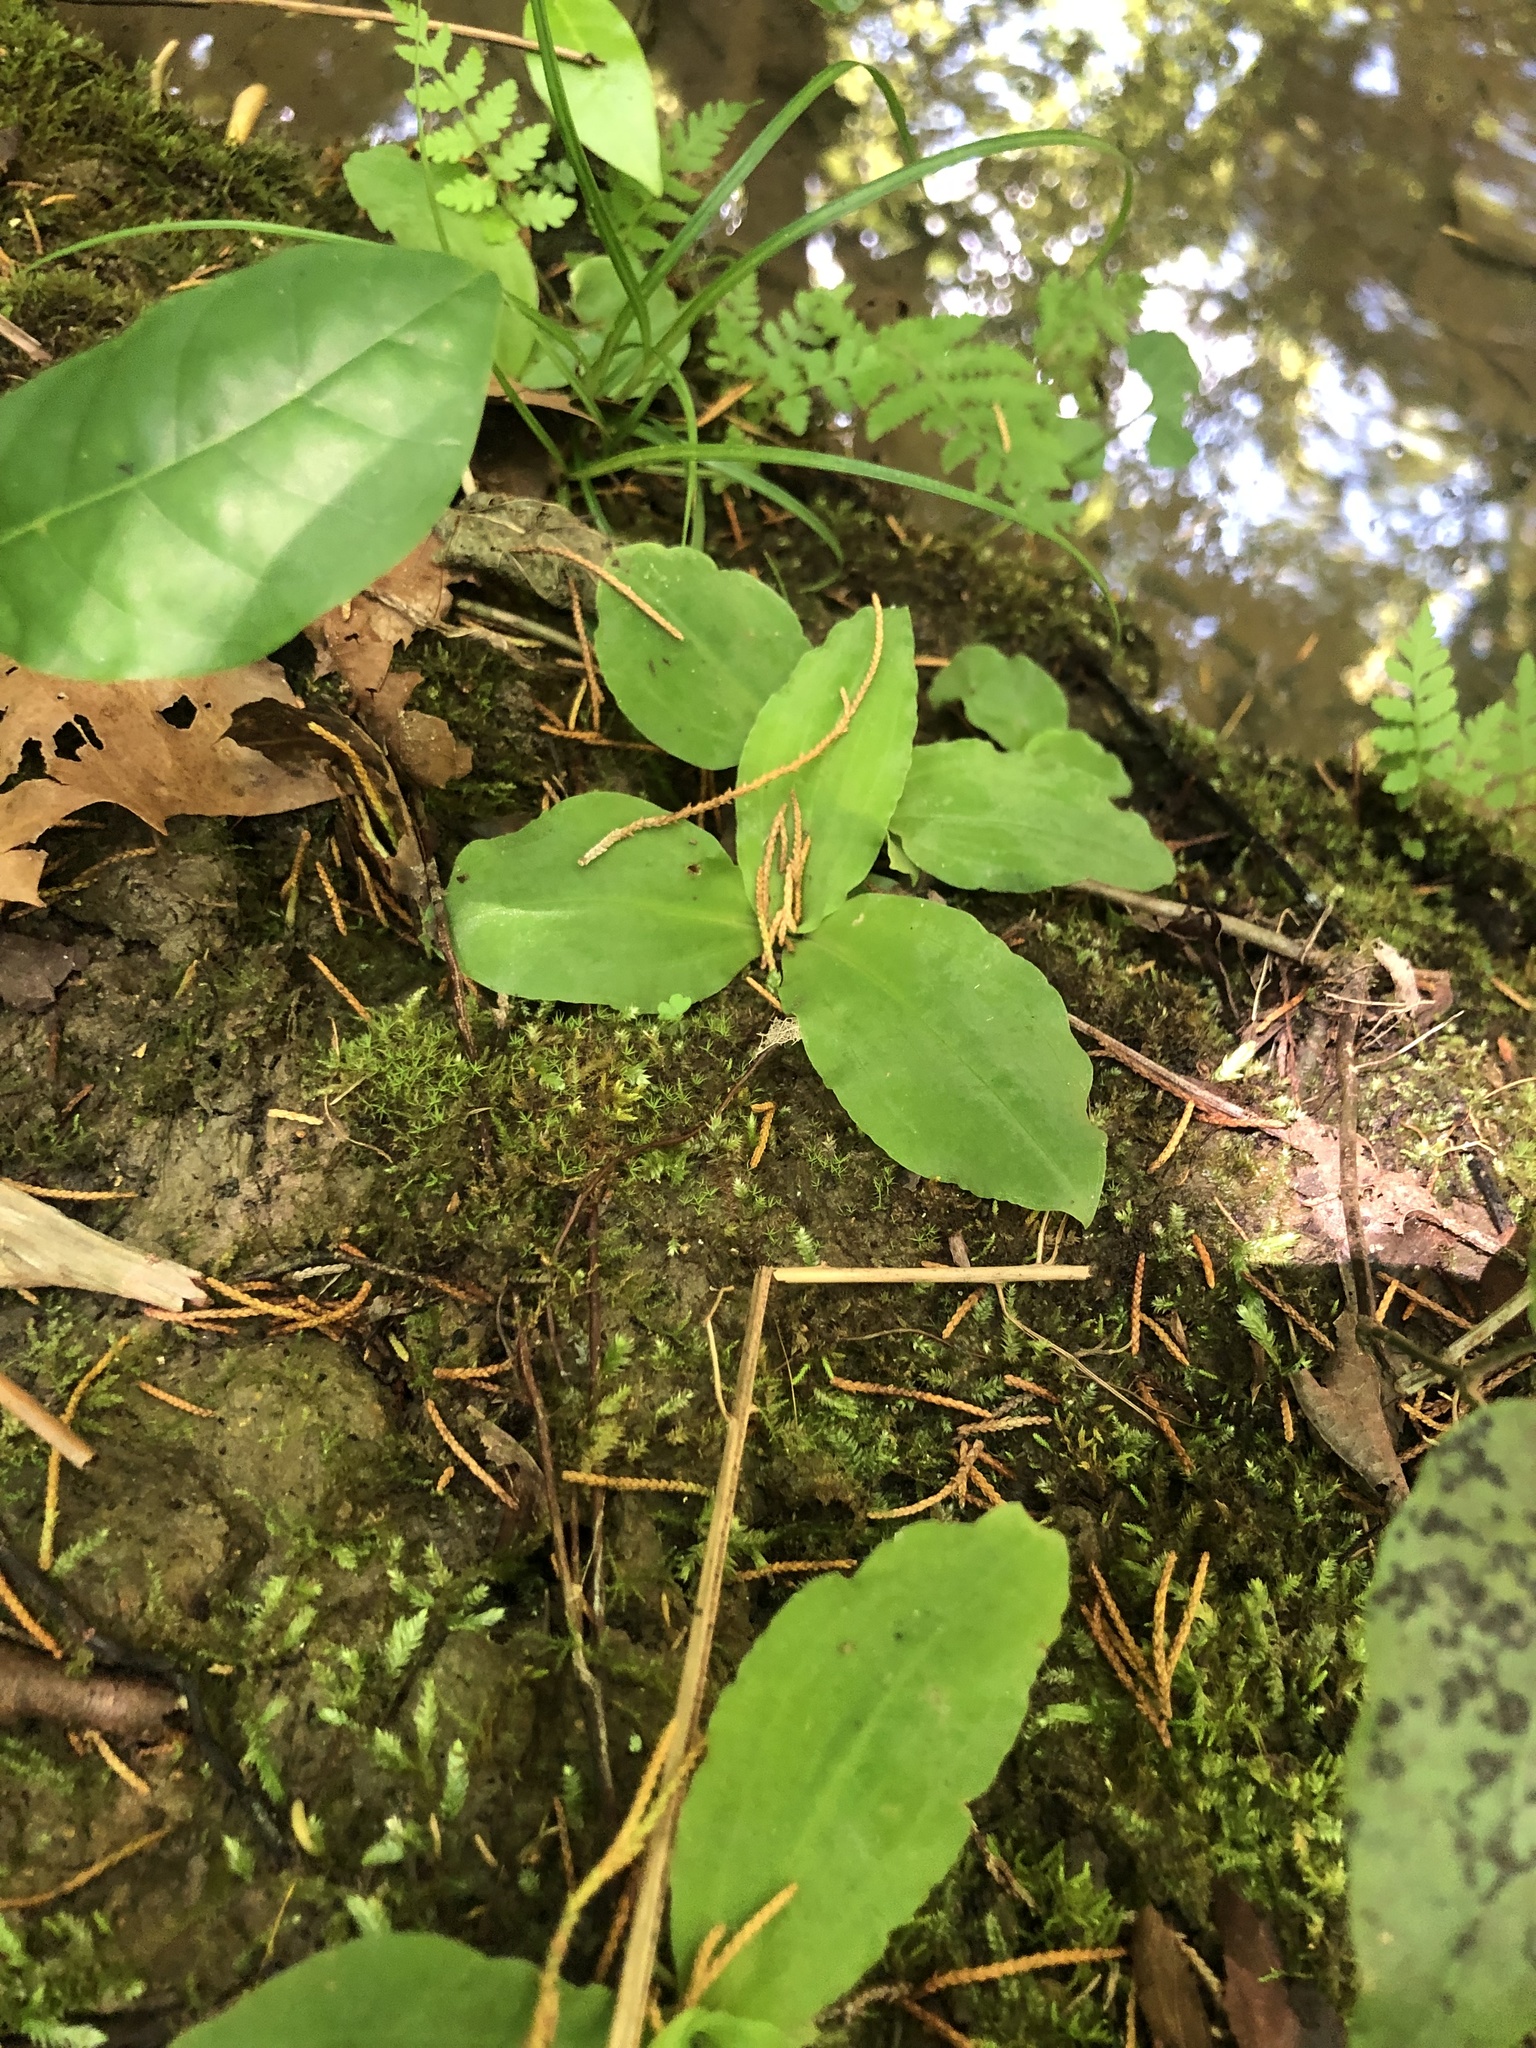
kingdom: Plantae
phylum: Tracheophyta
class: Liliopsida
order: Asparagales
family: Orchidaceae
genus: Ponthieva
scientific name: Ponthieva racemosa
